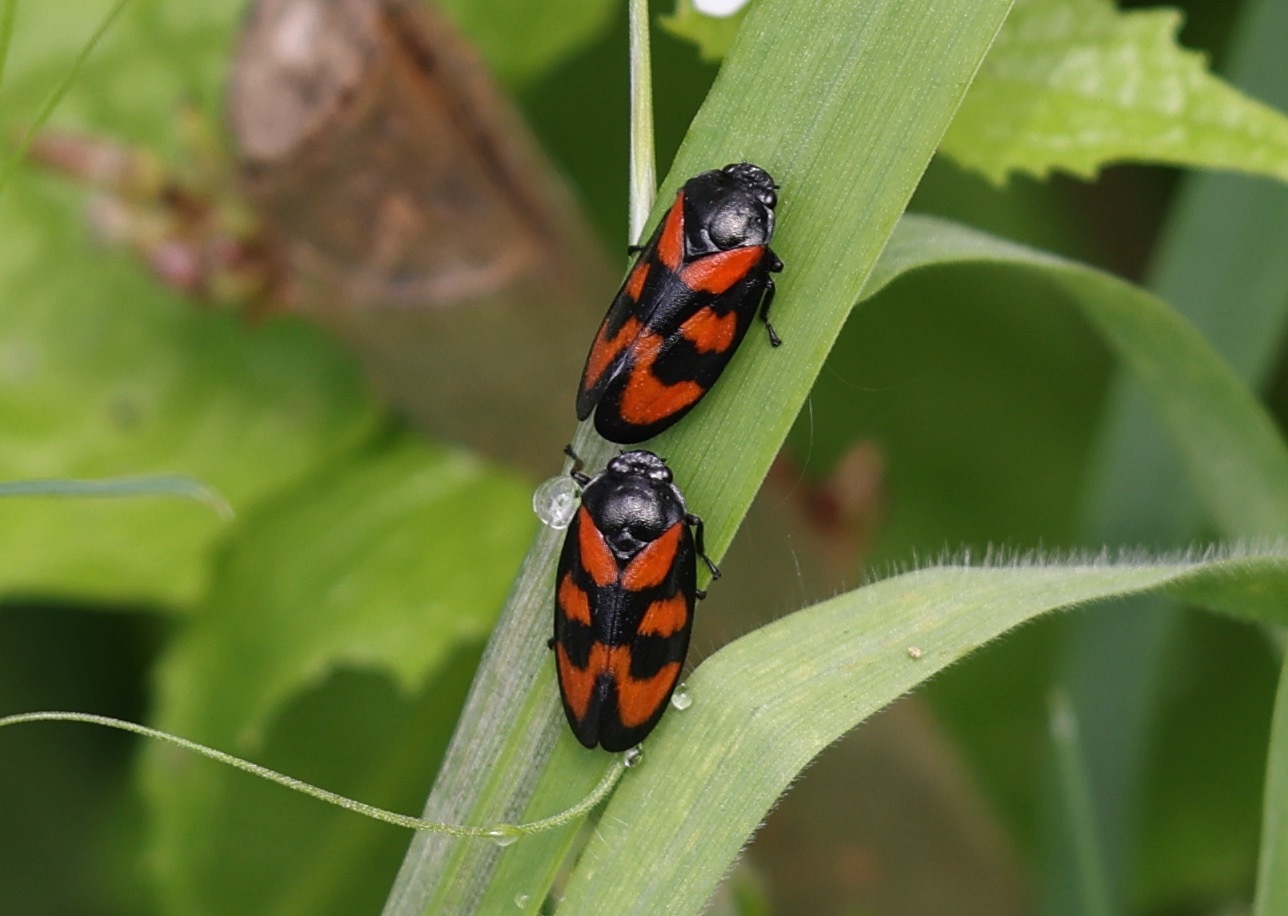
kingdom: Animalia
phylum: Arthropoda
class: Insecta
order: Hemiptera
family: Cercopidae
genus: Cercopis
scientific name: Cercopis vulnerata
